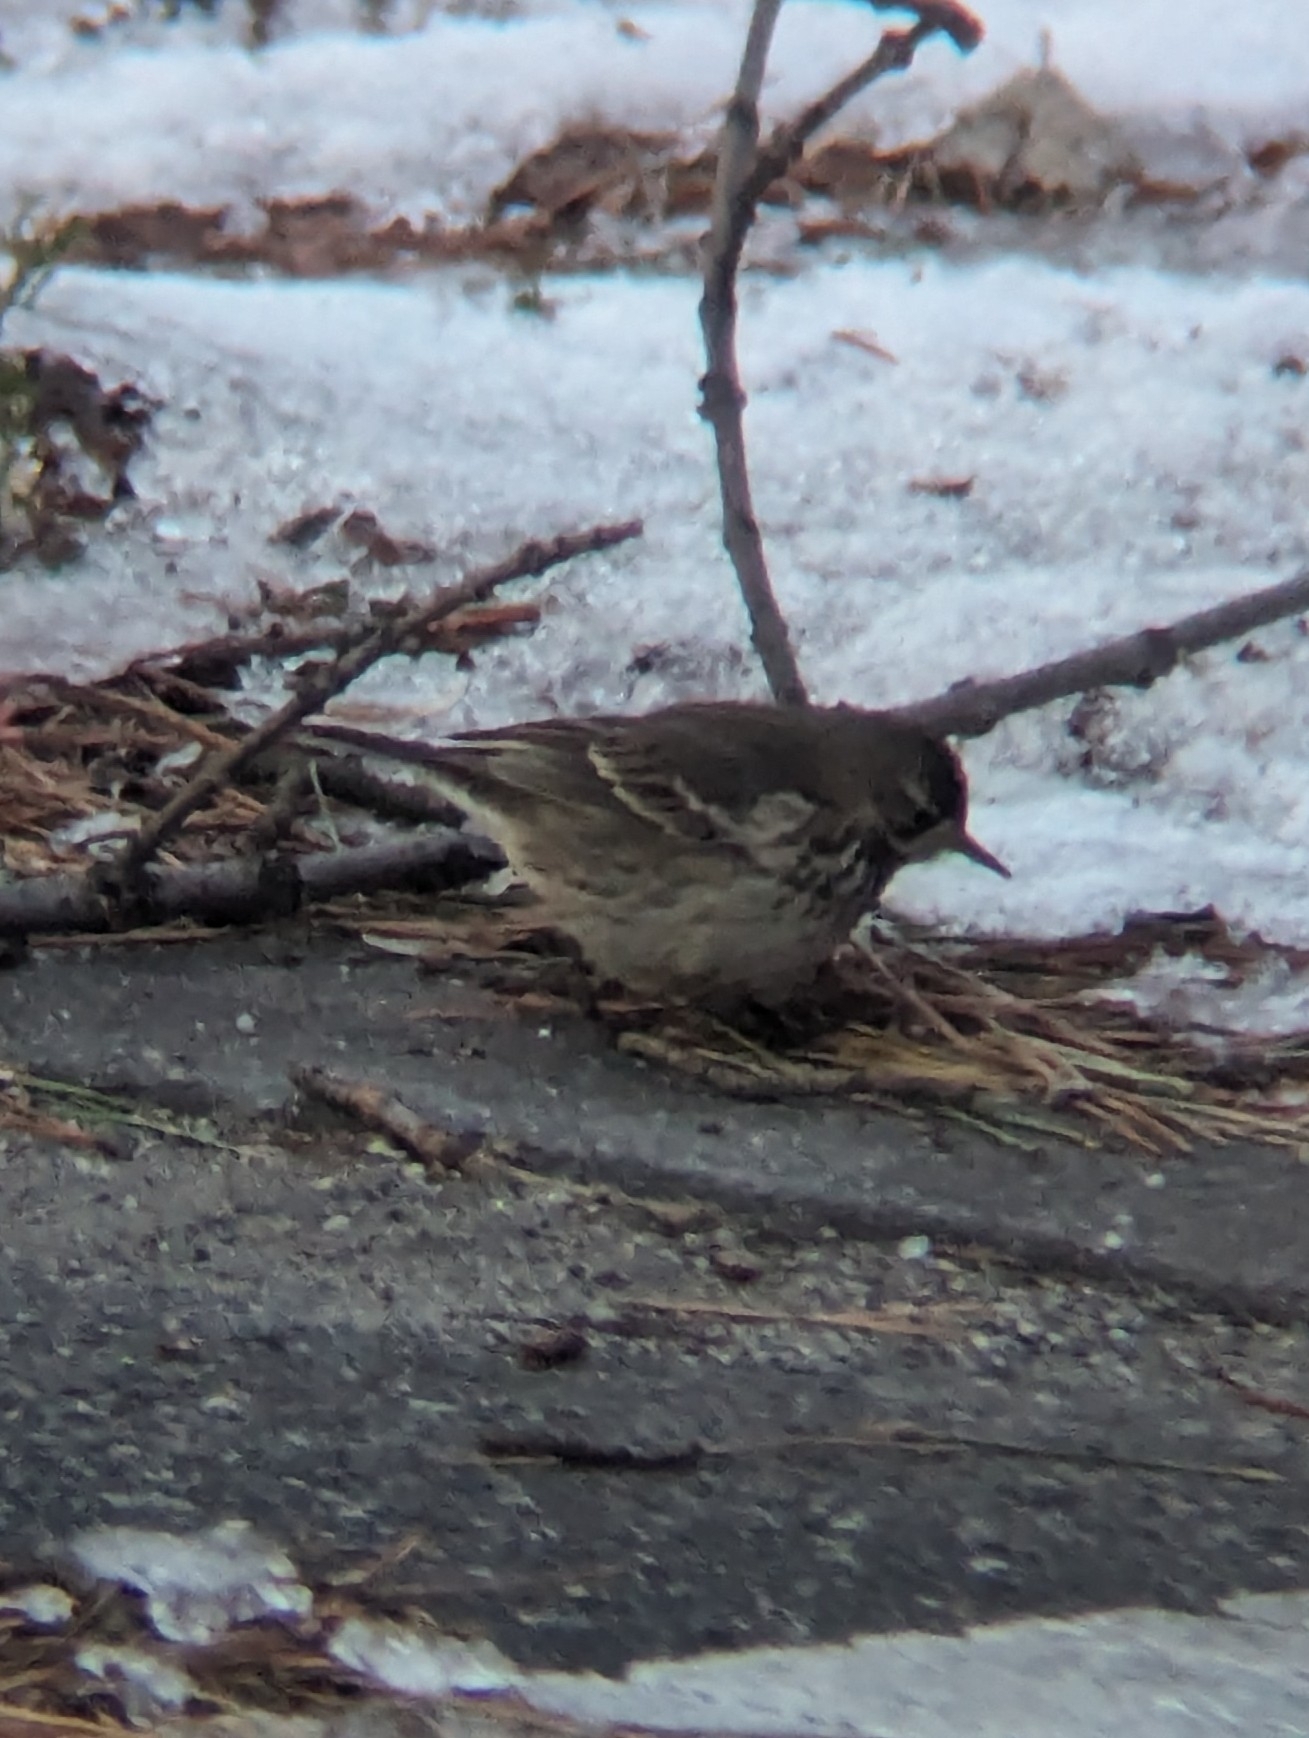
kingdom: Animalia
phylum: Chordata
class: Aves
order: Passeriformes
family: Motacillidae
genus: Anthus
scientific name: Anthus rubescens
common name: Buff-bellied pipit
